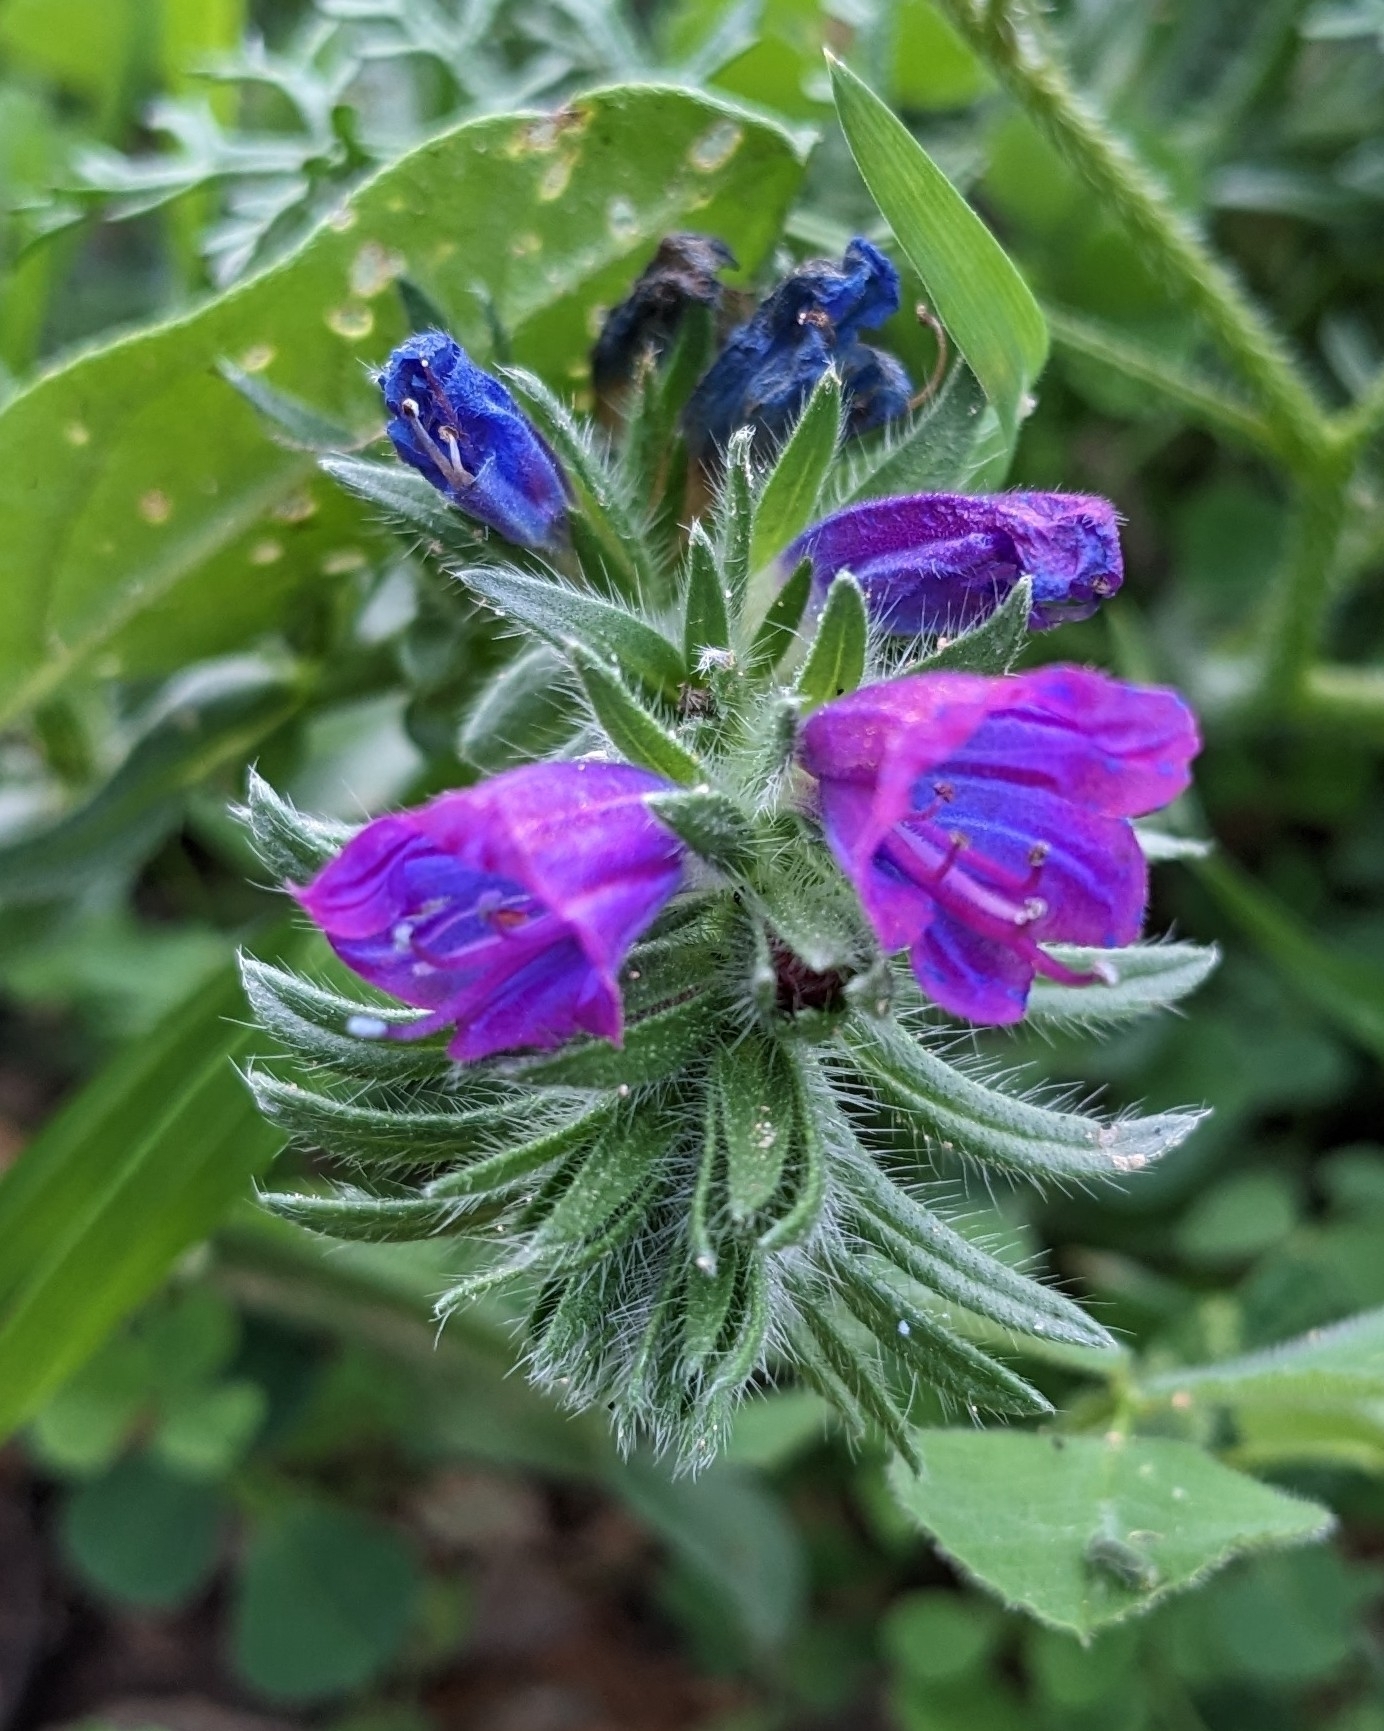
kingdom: Plantae
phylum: Tracheophyta
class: Magnoliopsida
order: Boraginales
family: Boraginaceae
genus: Echium
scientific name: Echium sabulicola
